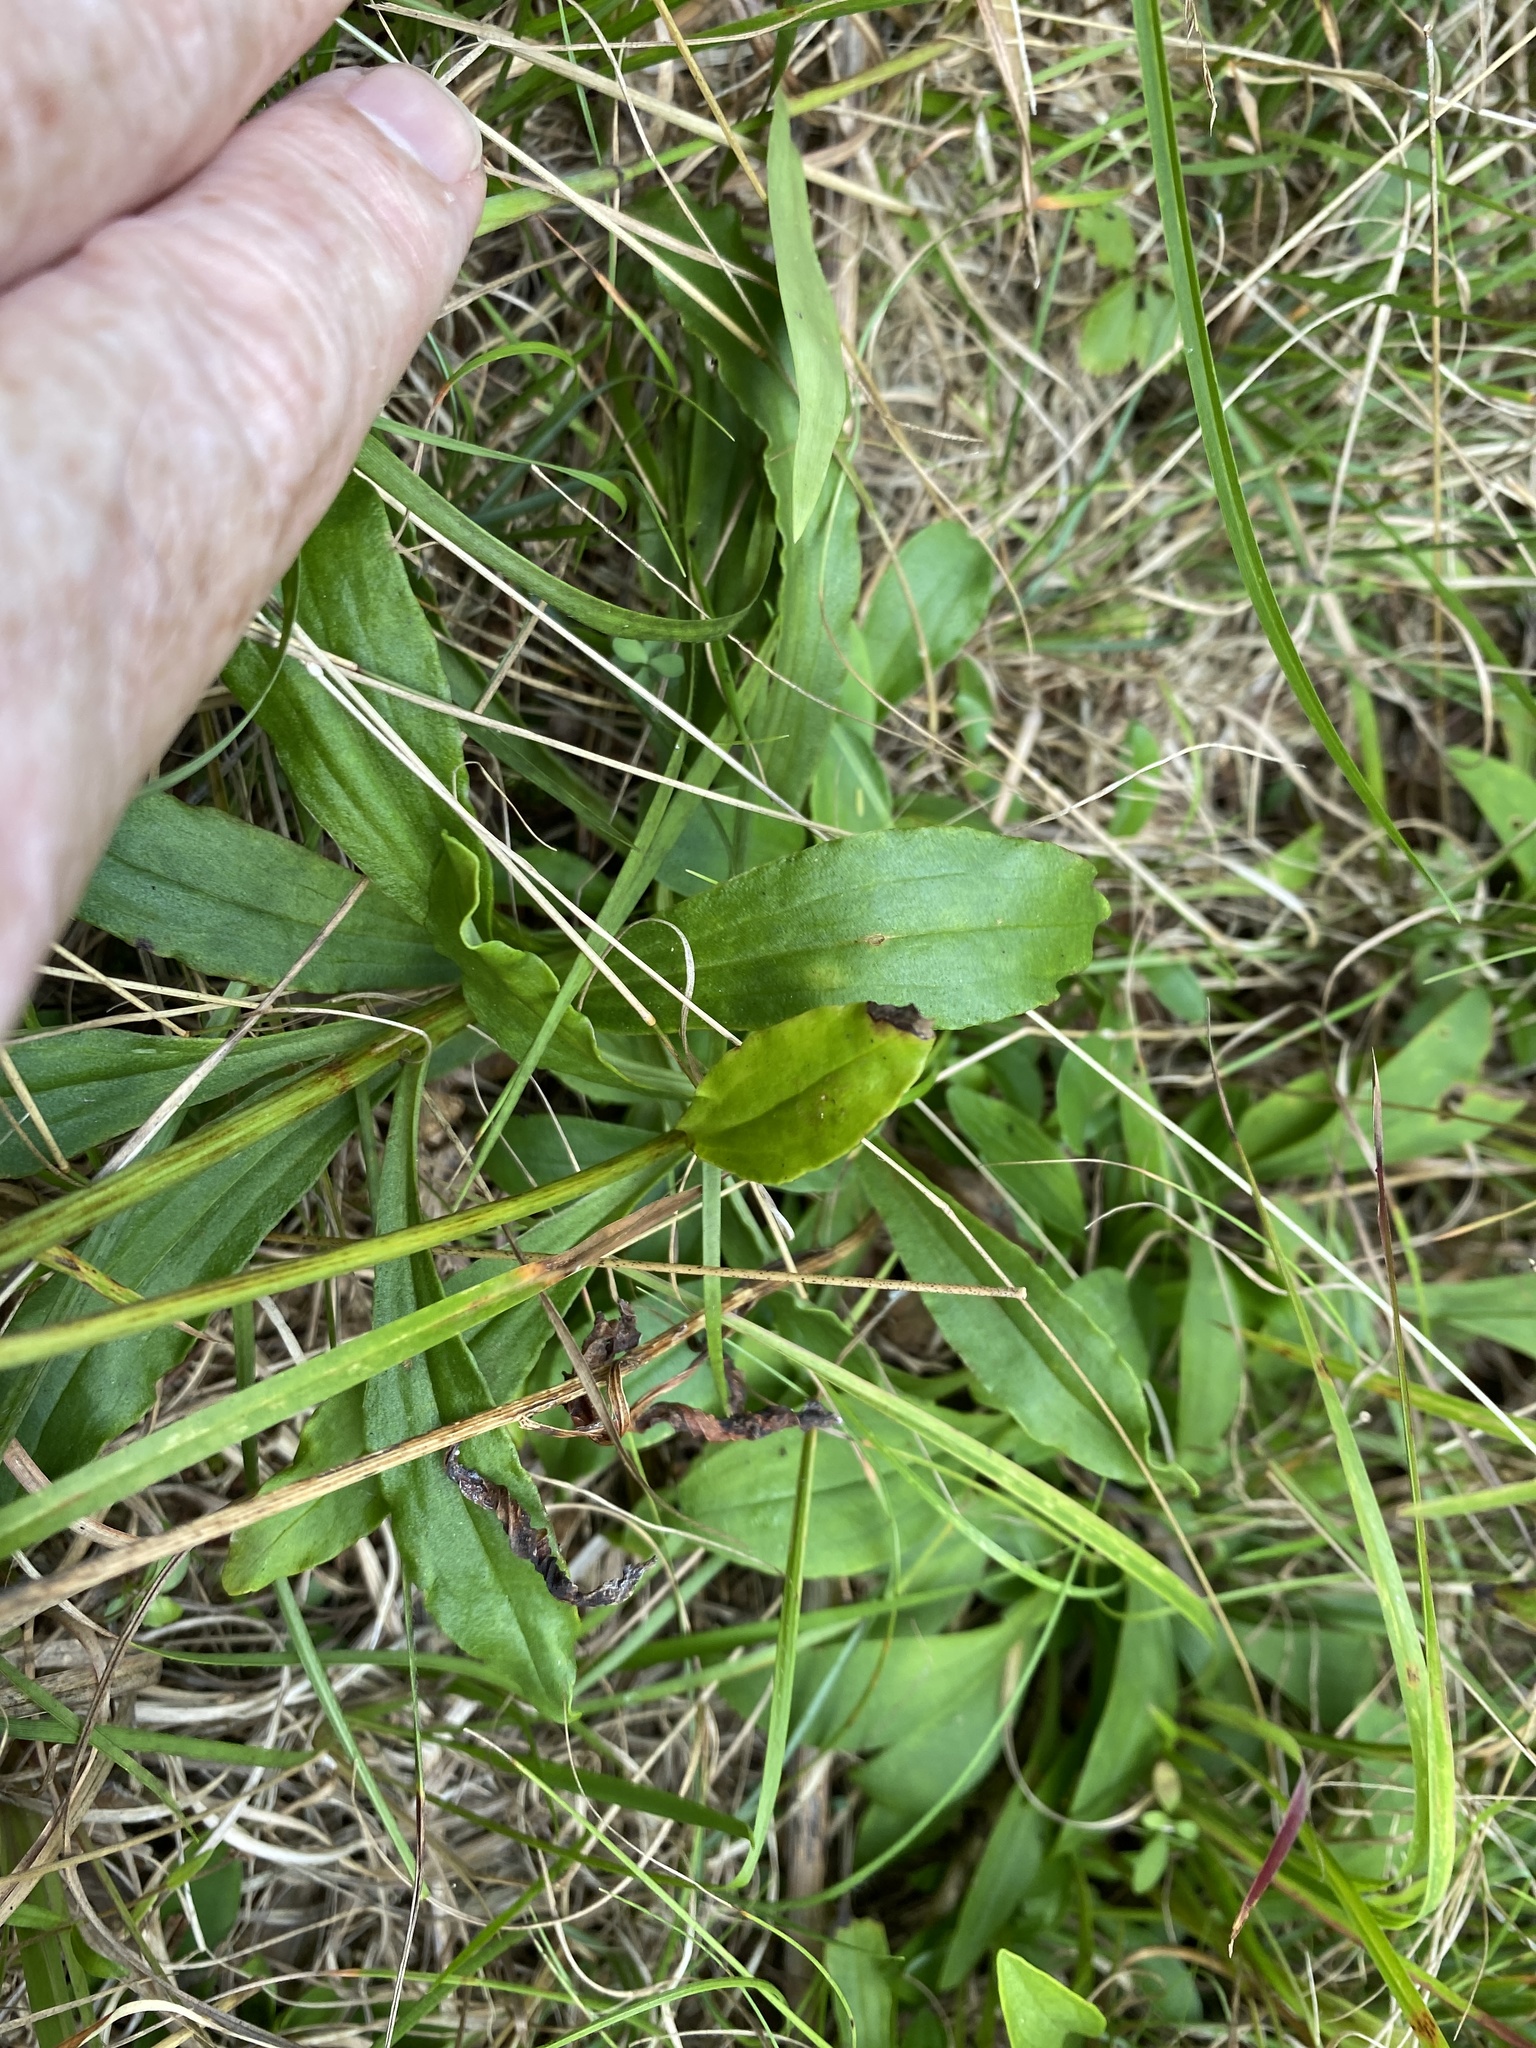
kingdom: Plantae
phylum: Tracheophyta
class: Magnoliopsida
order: Asterales
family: Asteraceae
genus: Marshallia
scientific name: Marshallia obovata
